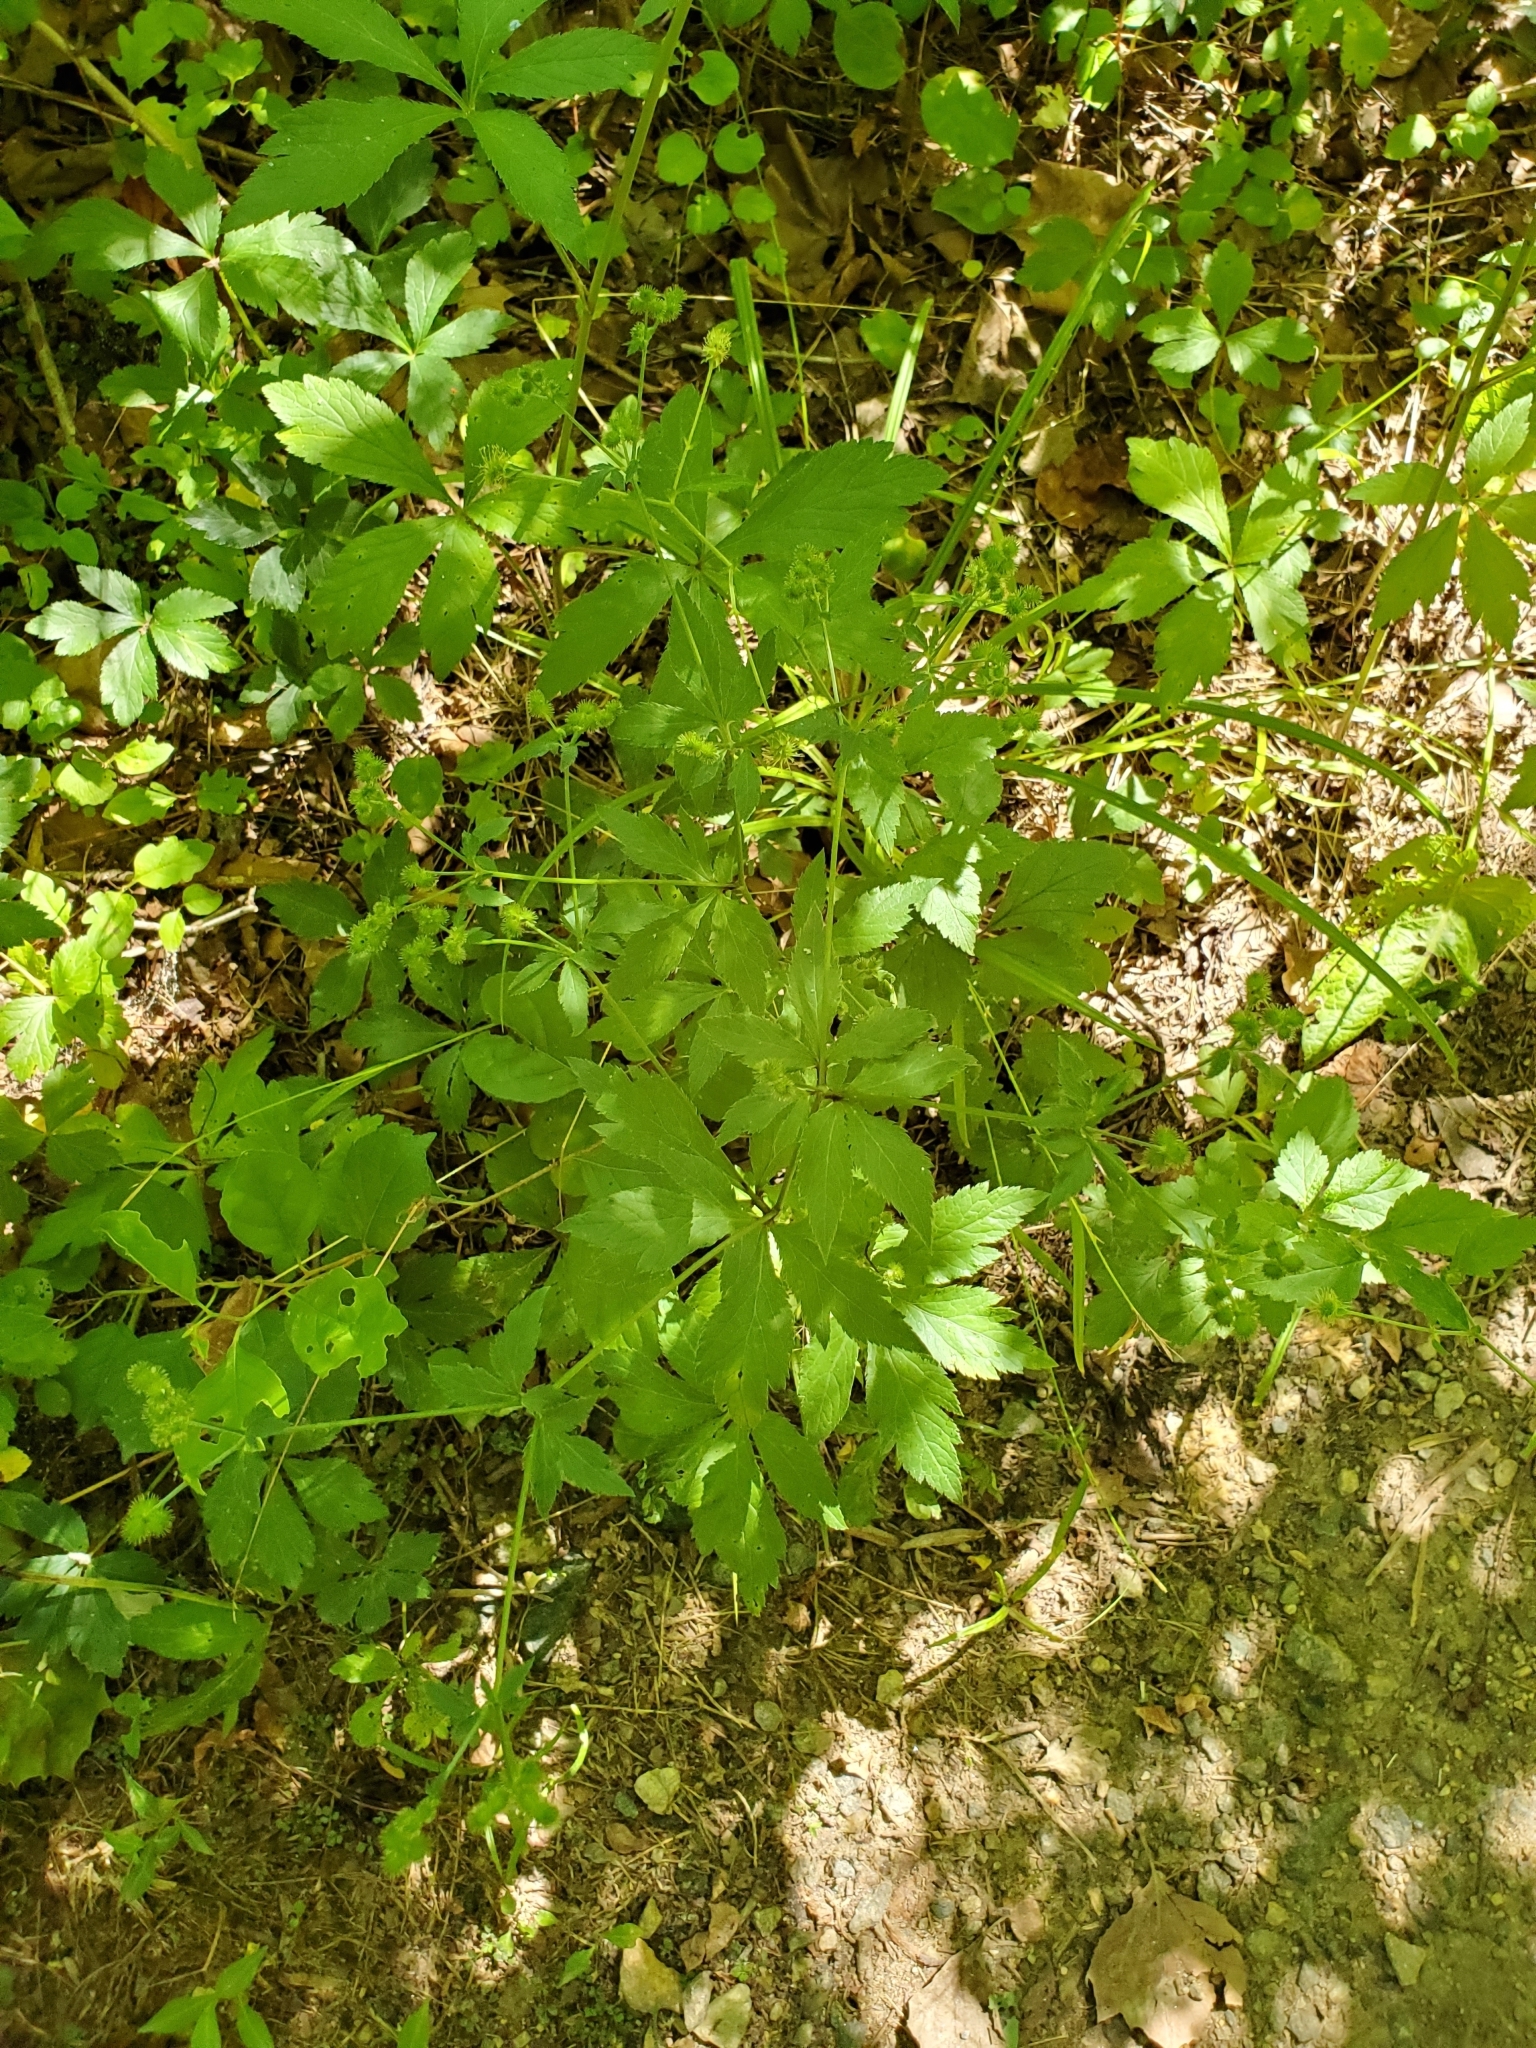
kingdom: Plantae
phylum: Tracheophyta
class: Magnoliopsida
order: Apiales
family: Apiaceae
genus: Sanicula
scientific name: Sanicula canadensis
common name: Canada sanicle
